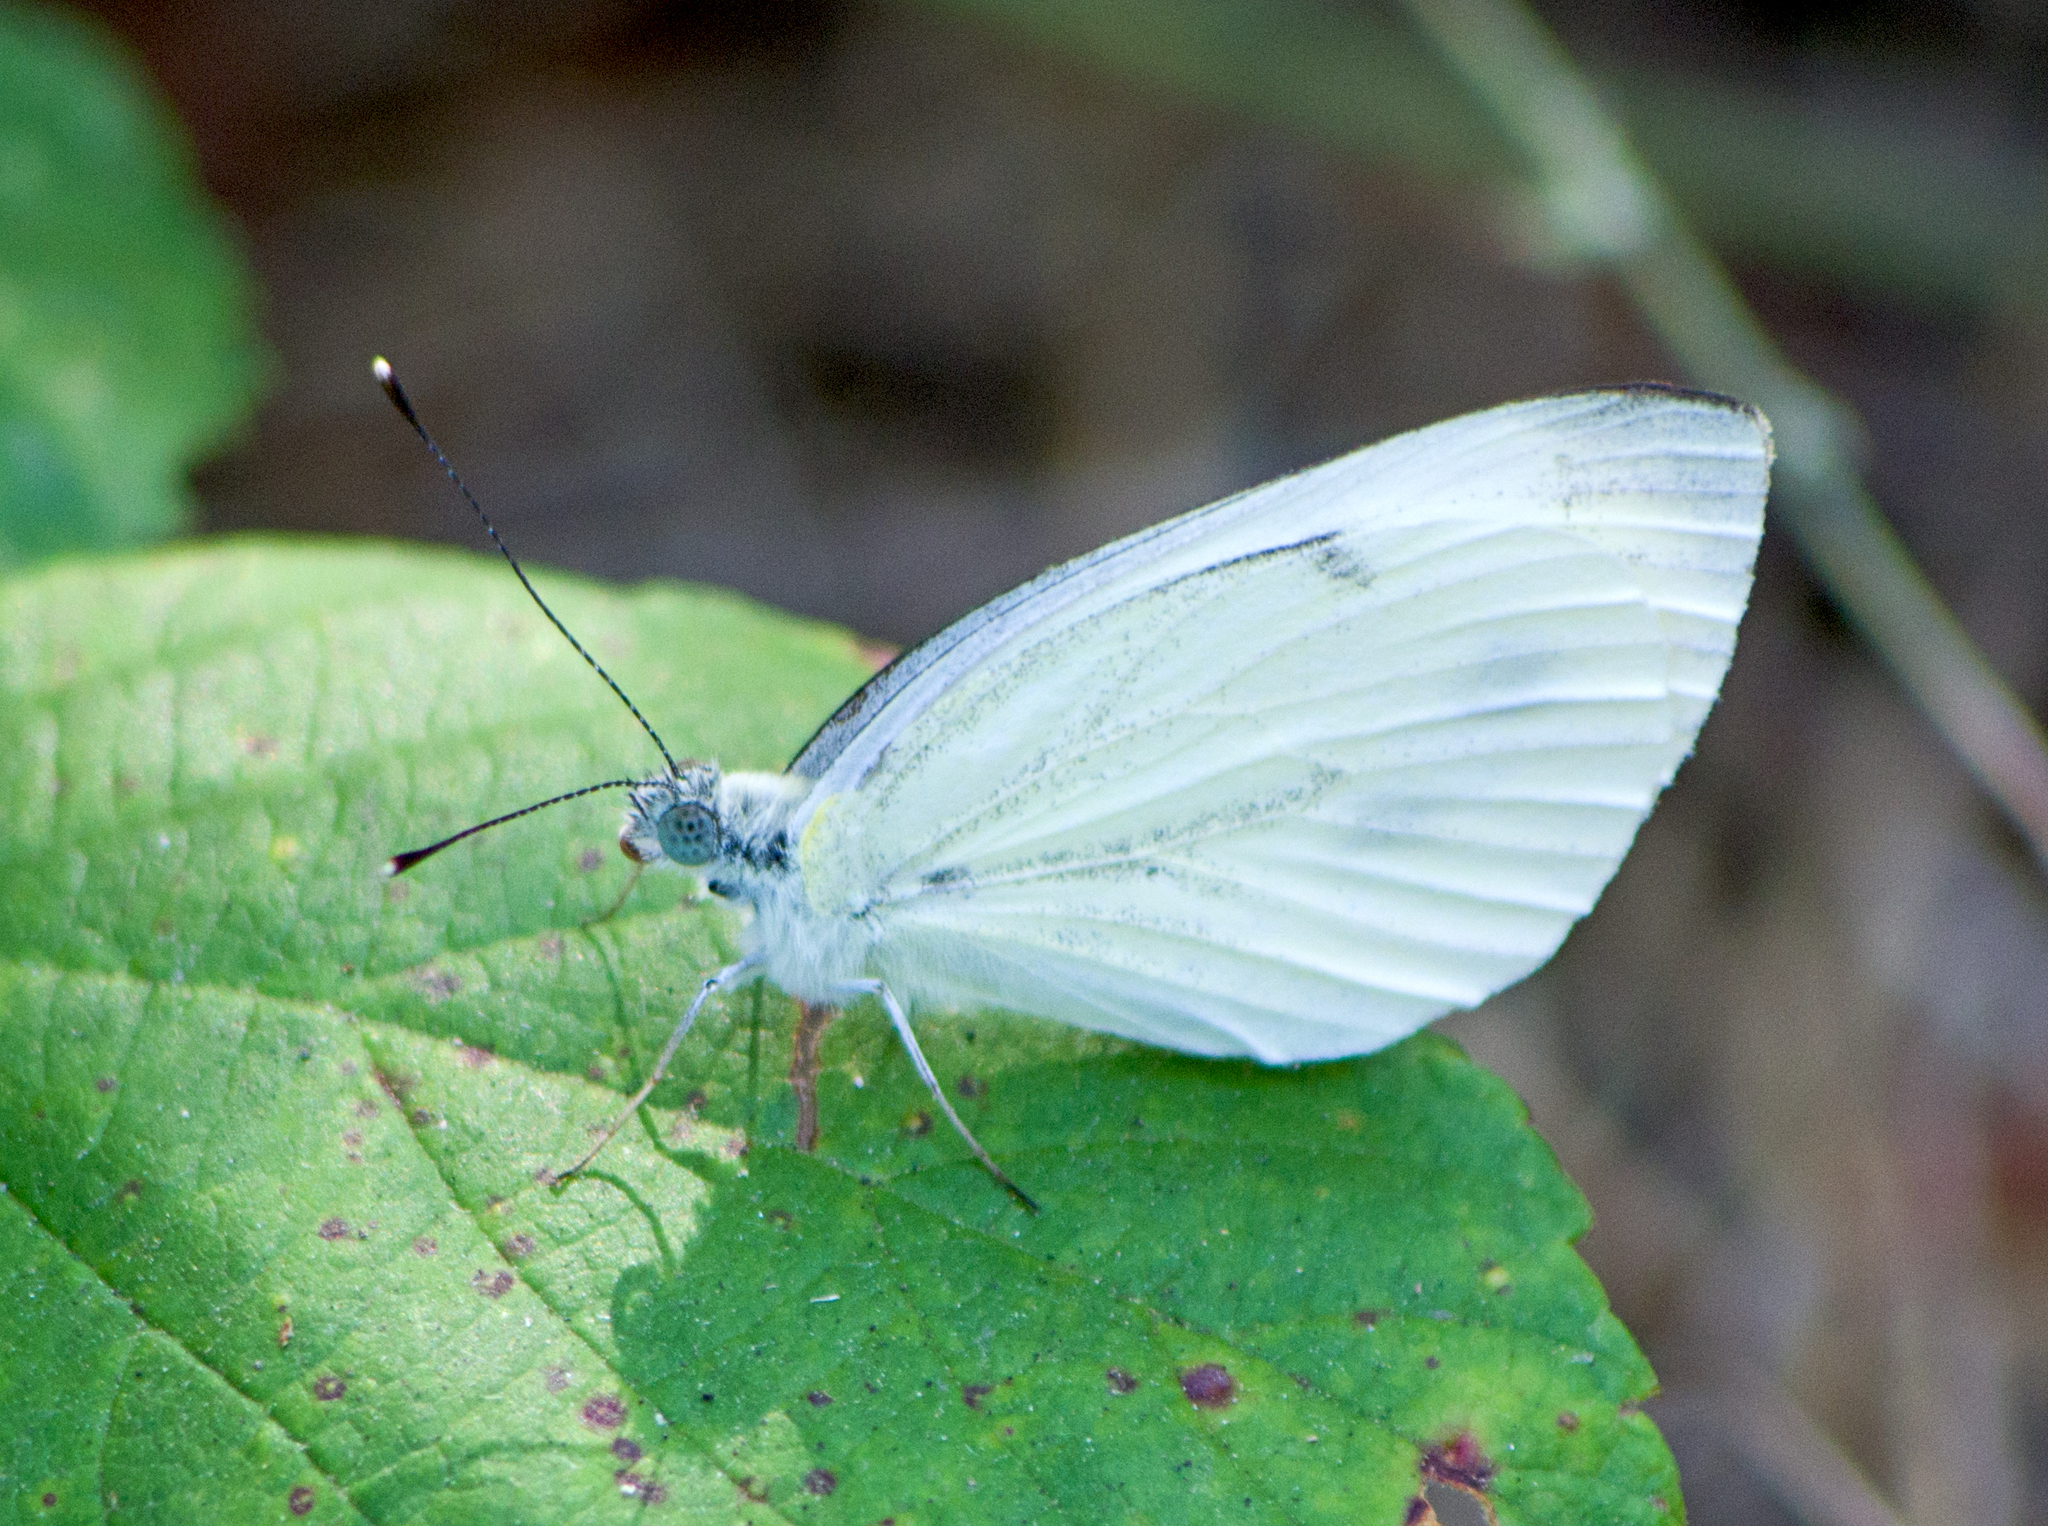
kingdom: Animalia
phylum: Arthropoda
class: Insecta
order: Lepidoptera
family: Pieridae
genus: Pieris
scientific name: Pieris napi
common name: Green-veined white
